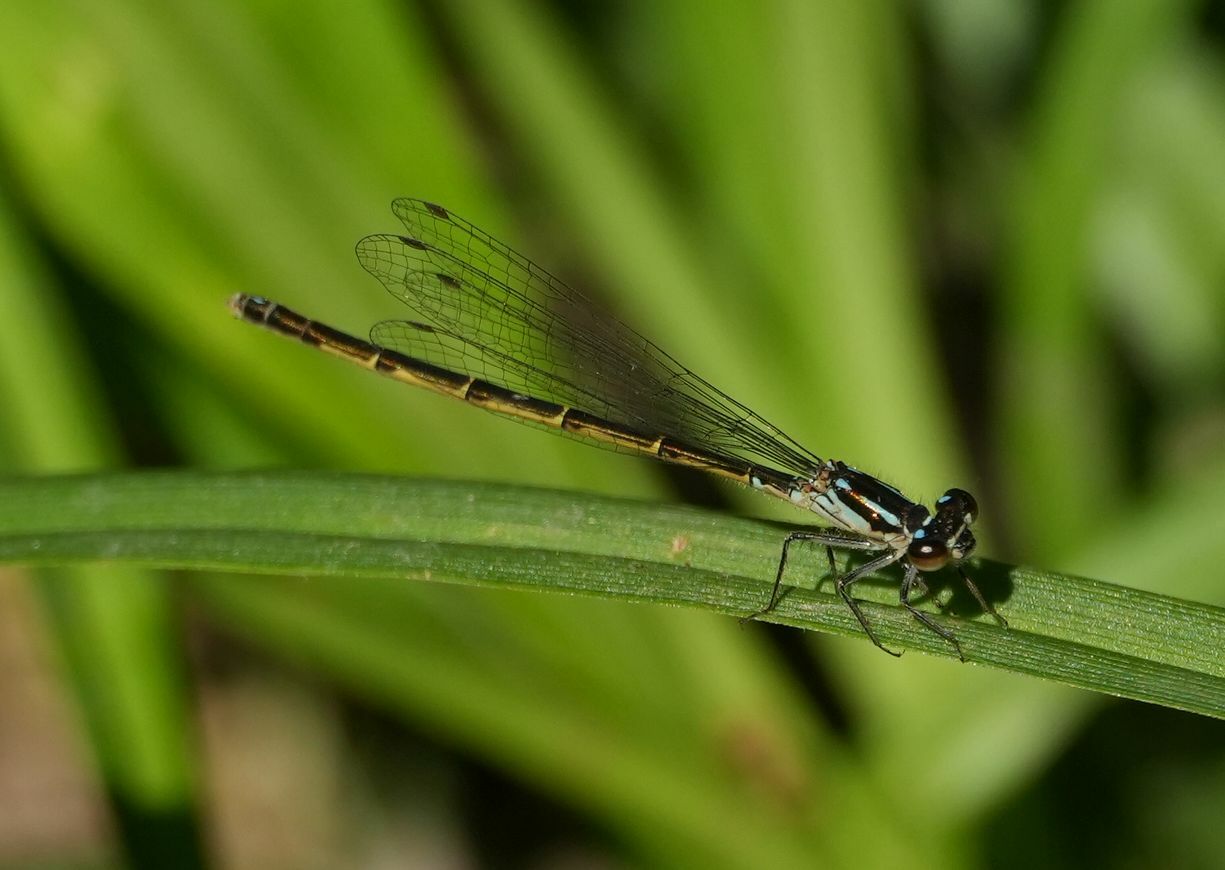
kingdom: Animalia
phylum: Arthropoda
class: Insecta
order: Odonata
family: Coenagrionidae
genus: Ischnura
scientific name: Ischnura posita
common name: Fragile forktail
